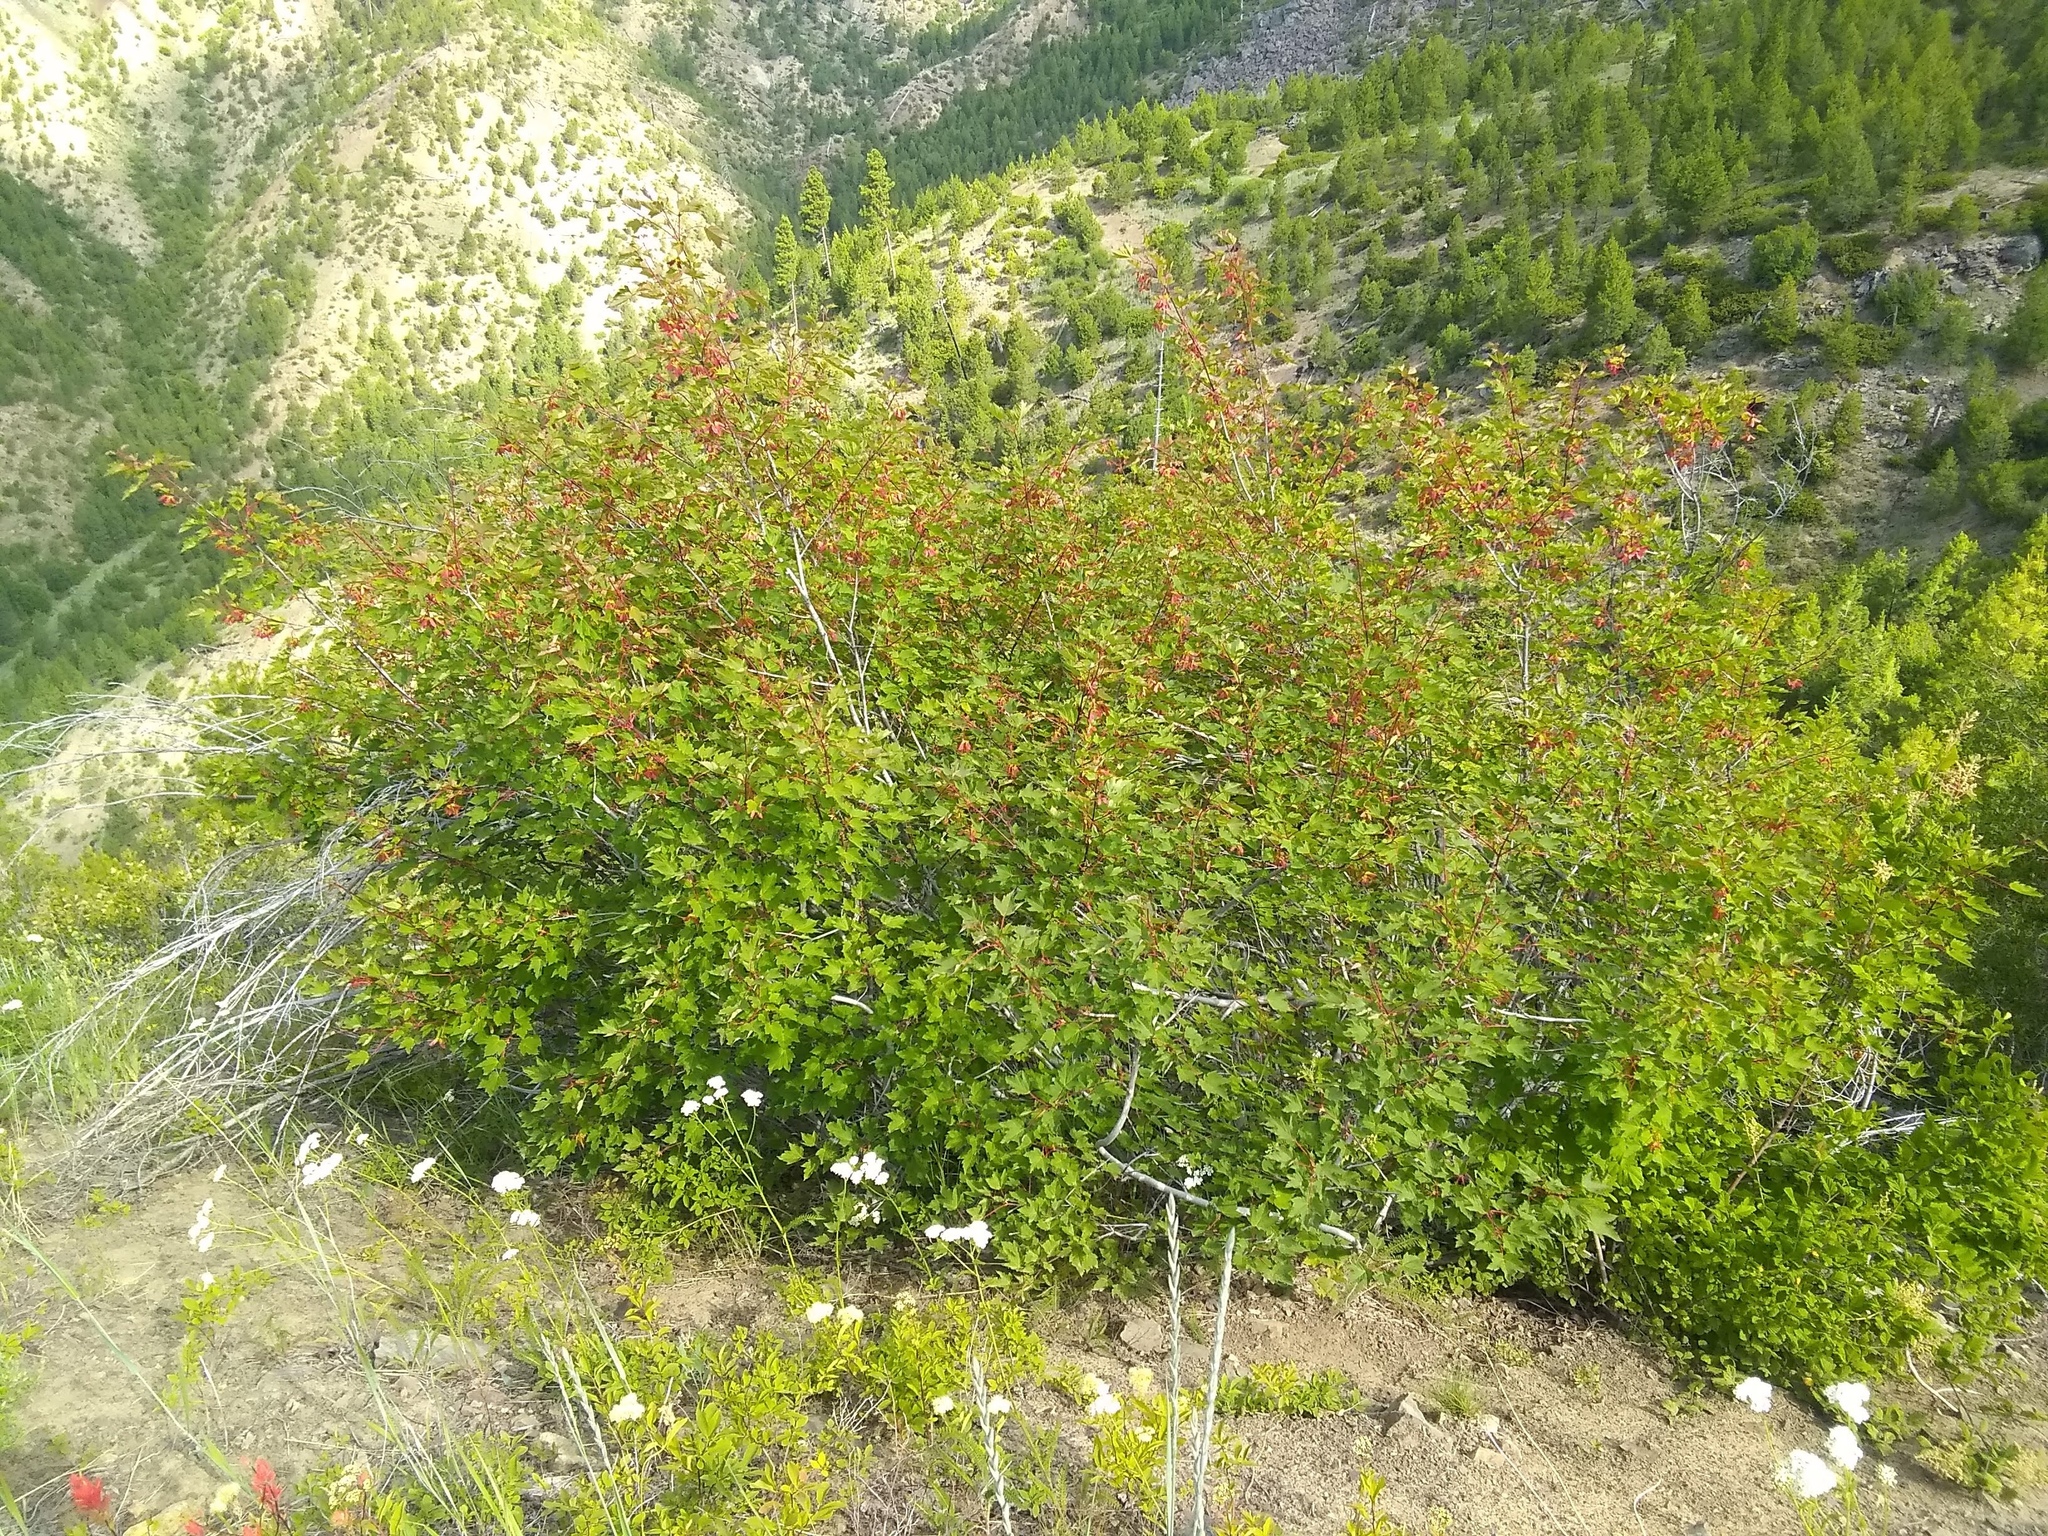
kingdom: Plantae
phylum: Tracheophyta
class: Magnoliopsida
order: Sapindales
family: Sapindaceae
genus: Acer
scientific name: Acer glabrum
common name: Rocky mountain maple
